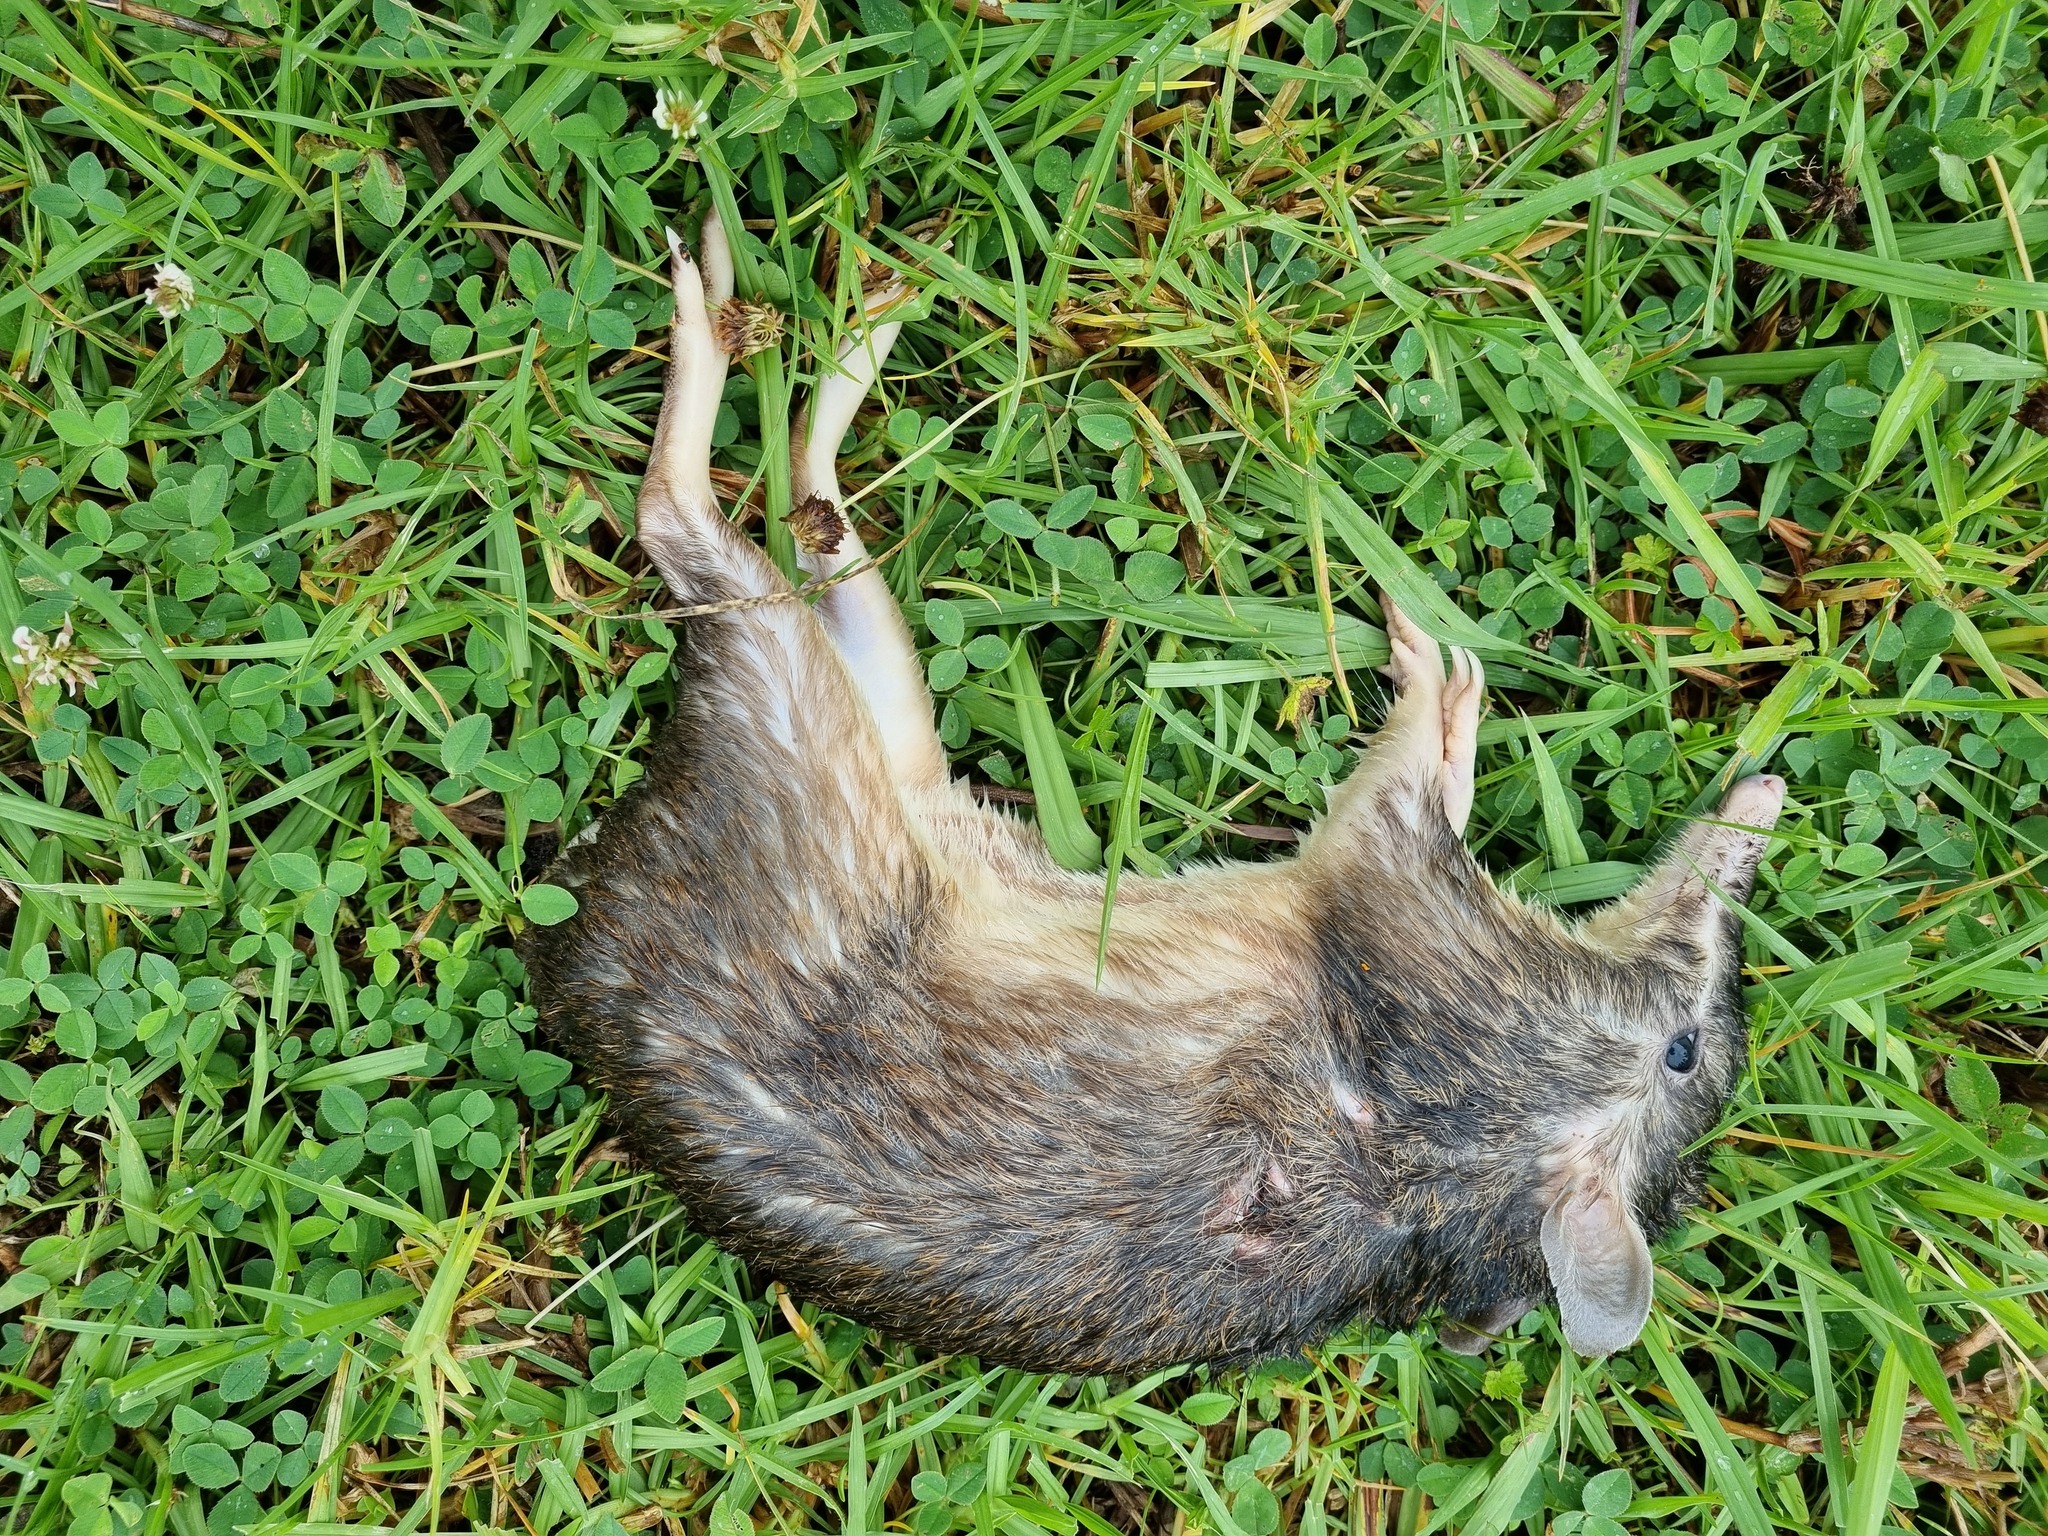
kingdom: Animalia
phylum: Chordata
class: Mammalia
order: Peramelemorphia
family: Peramelidae
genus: Perameles
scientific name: Perameles nasuta
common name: Long-nosed bandicoot
